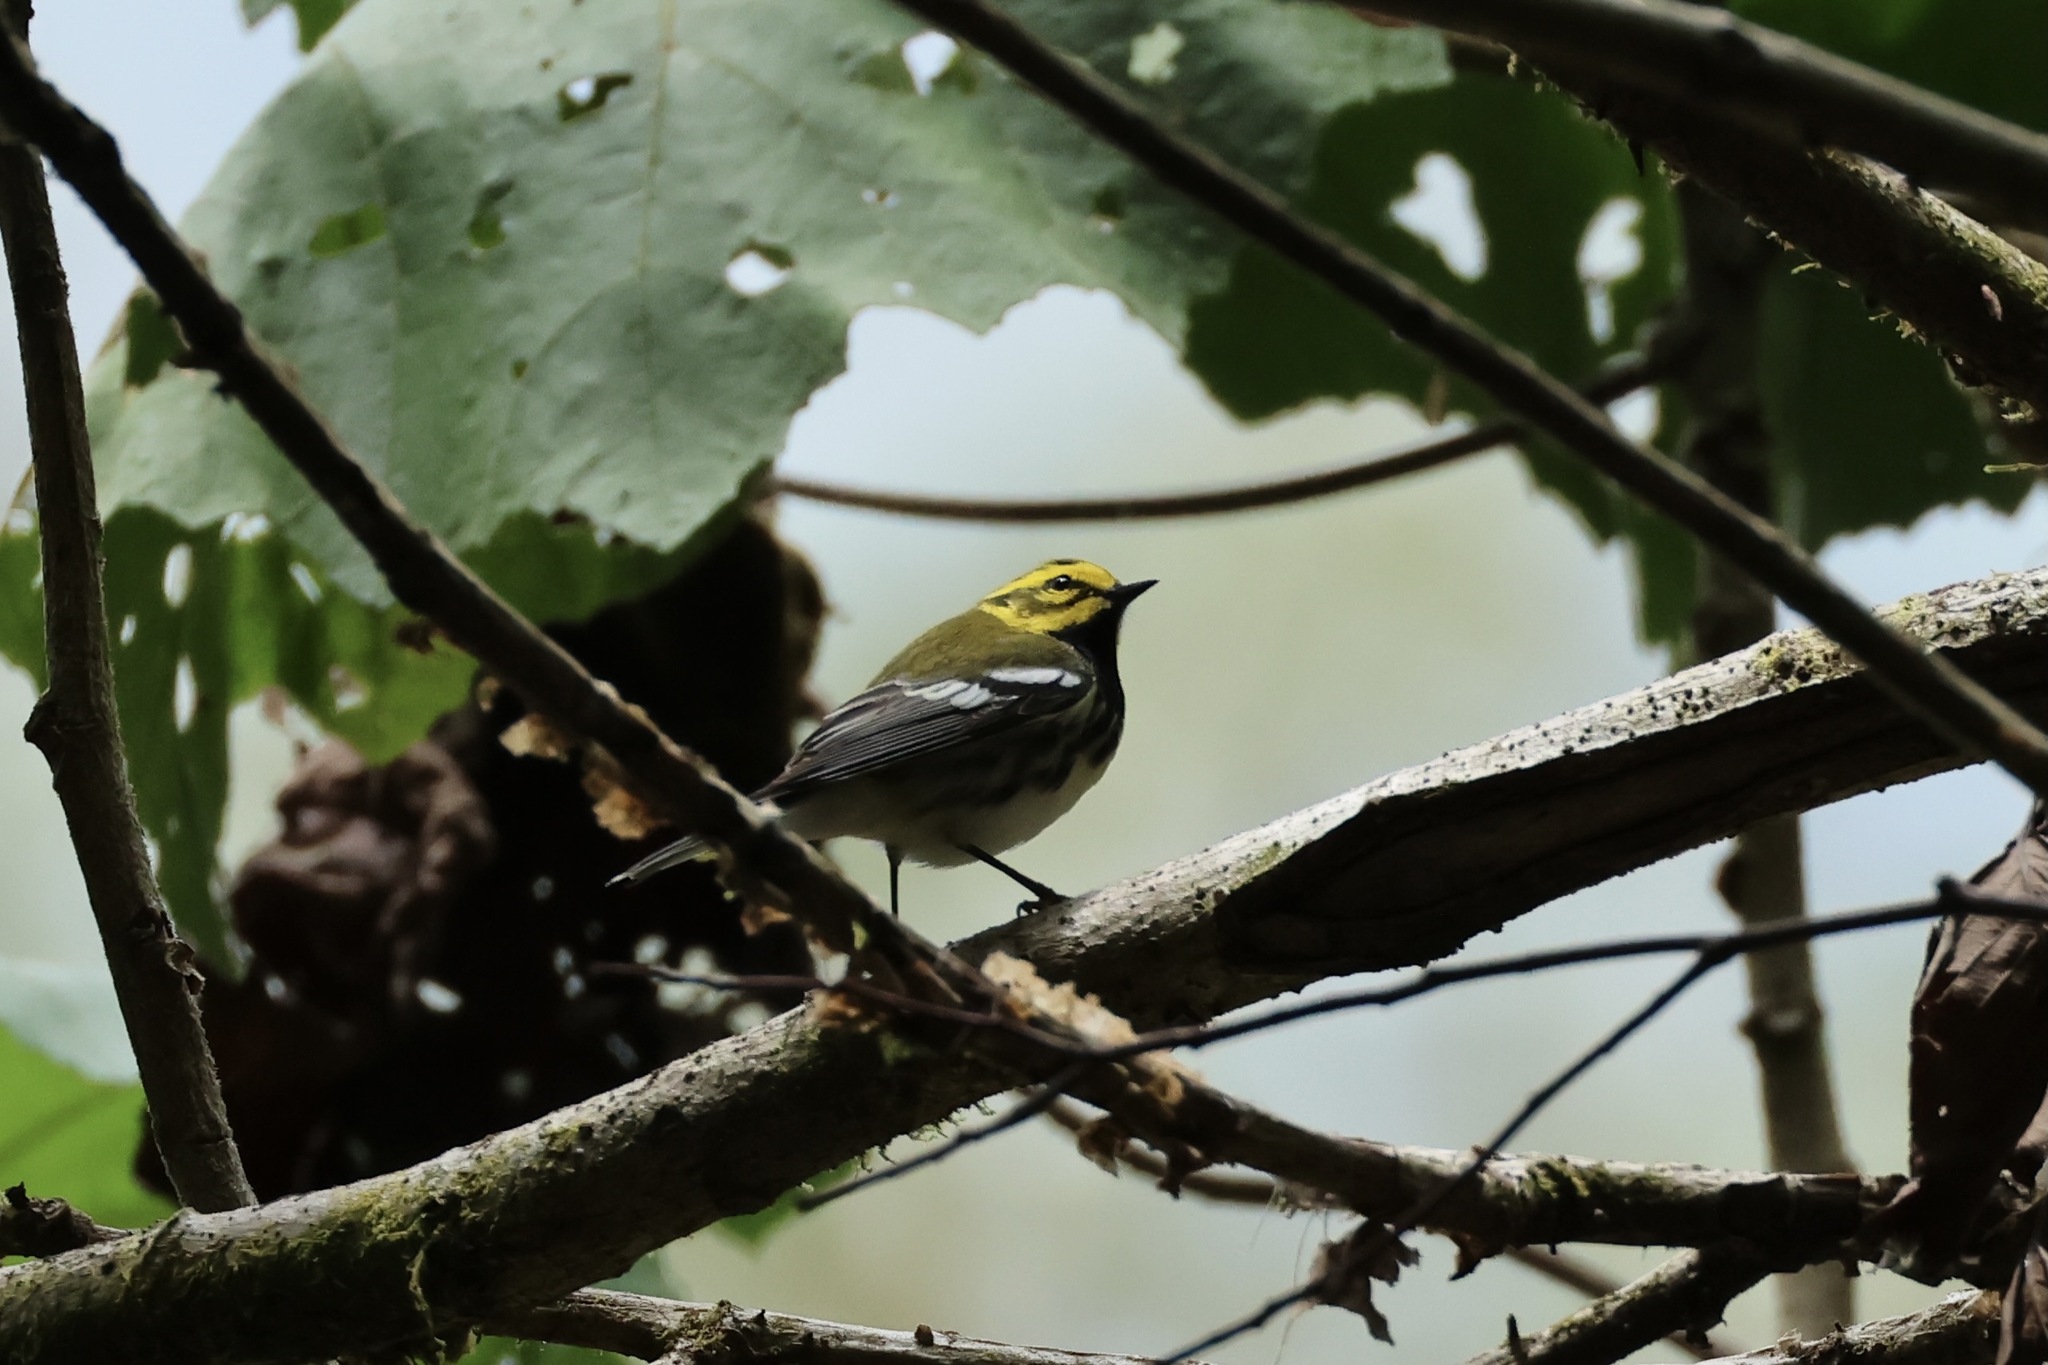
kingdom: Animalia
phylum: Chordata
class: Aves
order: Passeriformes
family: Parulidae
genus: Setophaga
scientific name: Setophaga virens
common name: Black-throated green warbler
